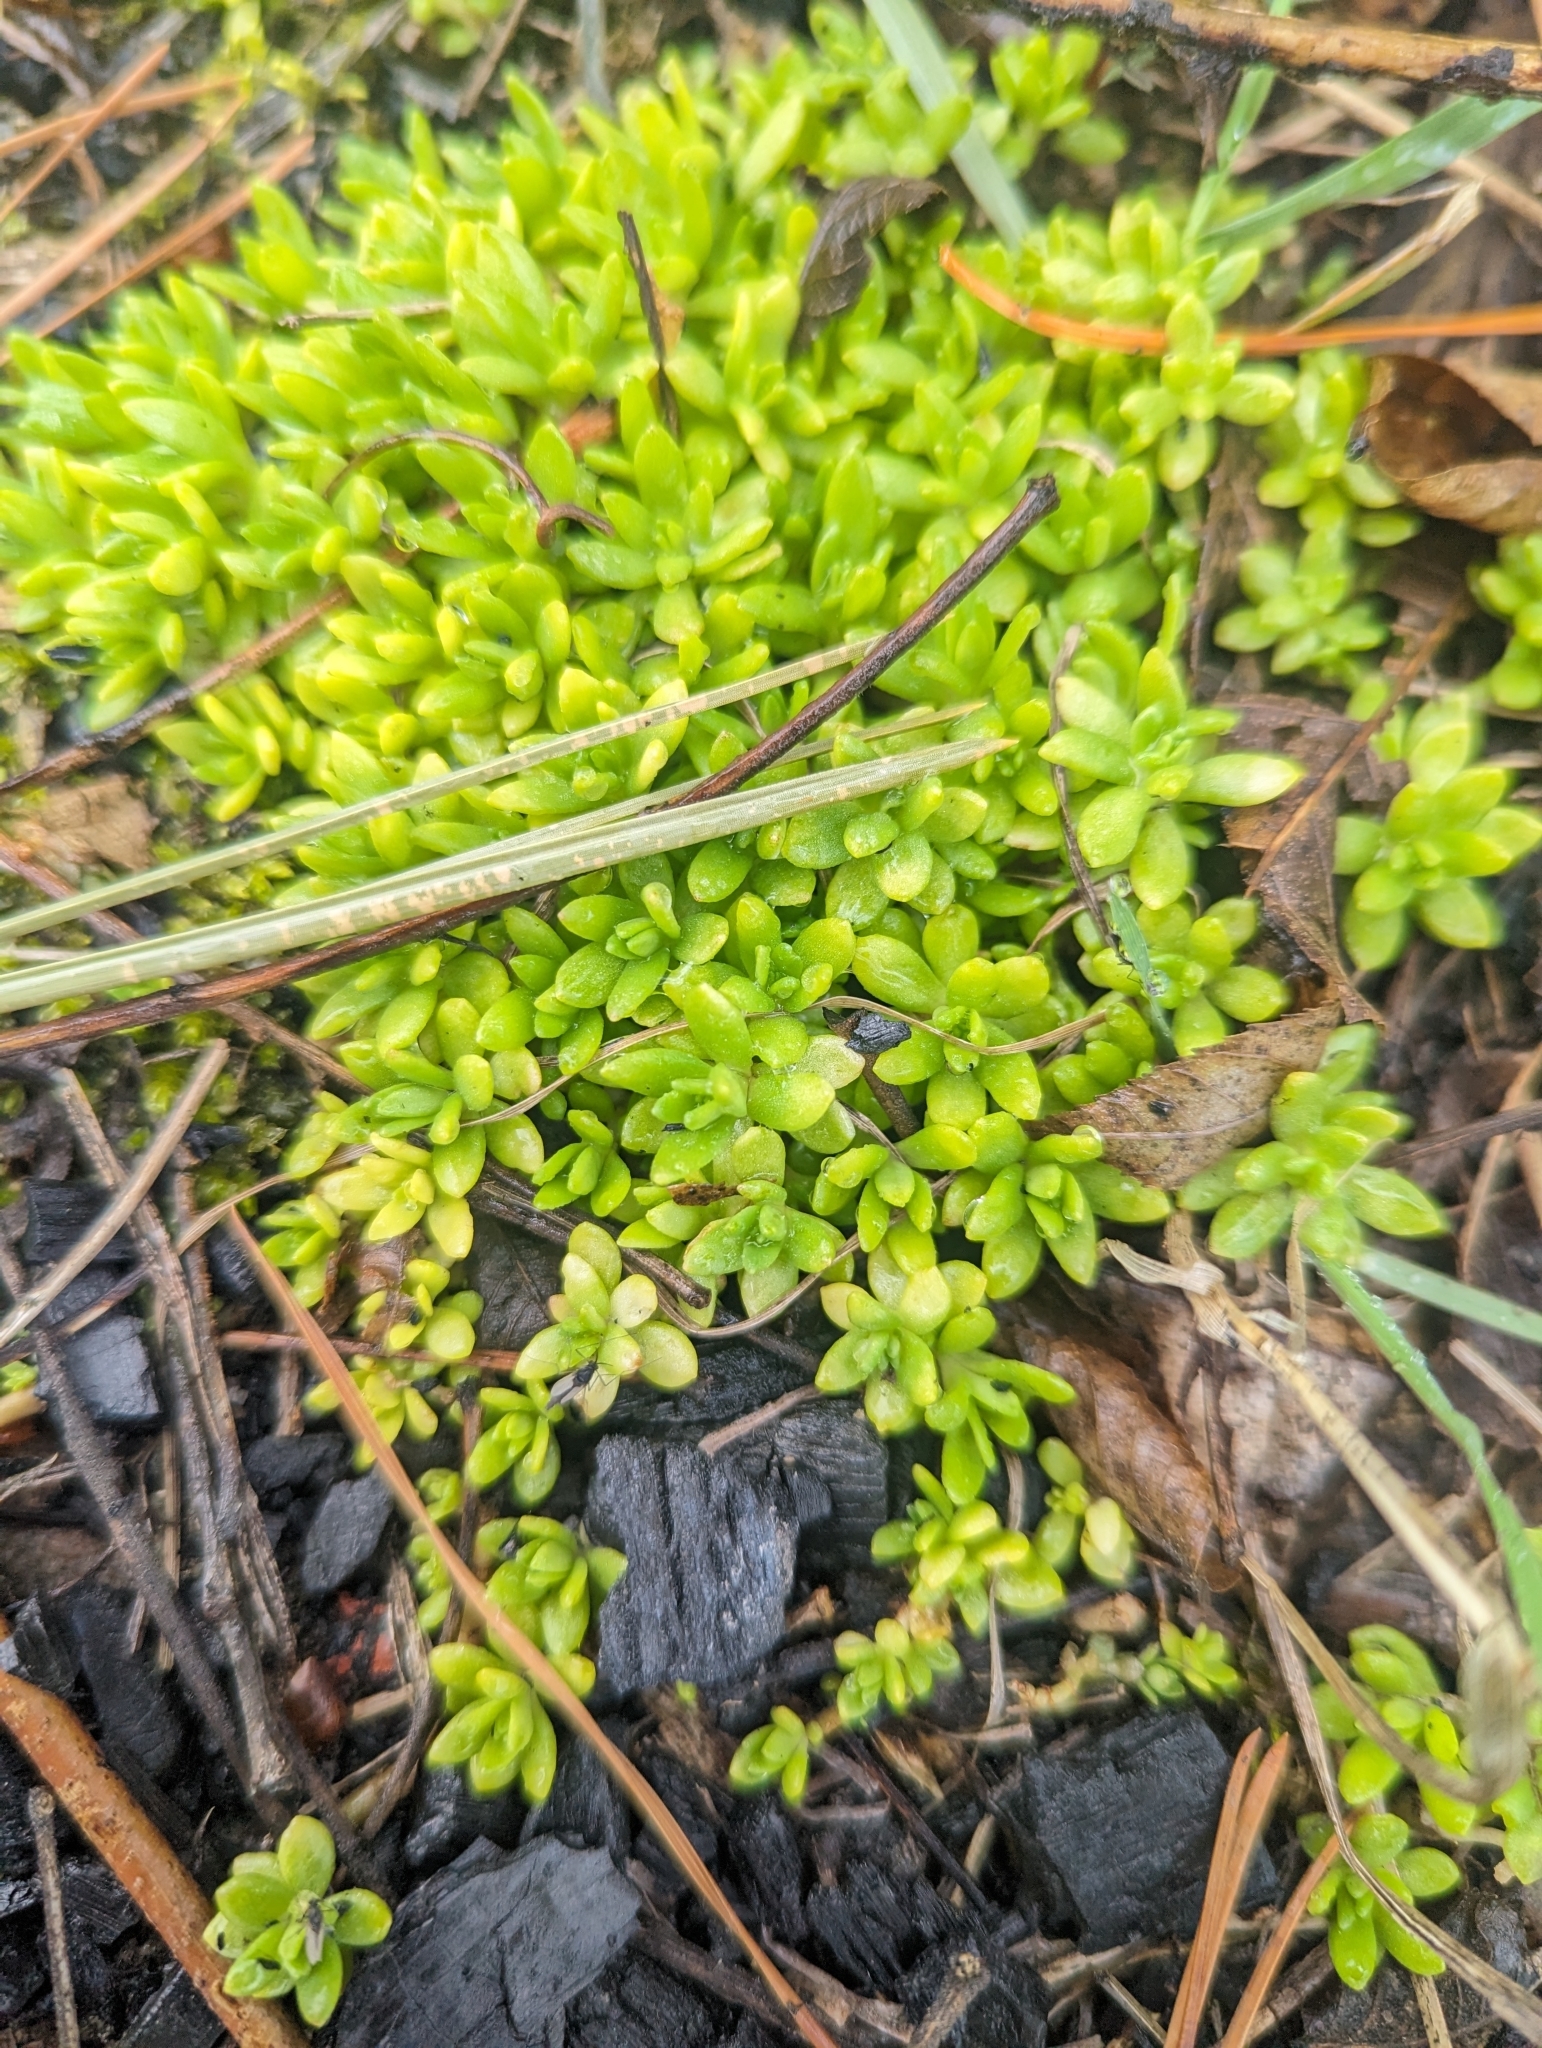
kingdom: Plantae
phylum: Tracheophyta
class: Magnoliopsida
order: Saxifragales
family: Crassulaceae
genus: Sedum
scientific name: Sedum sarmentosum
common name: Stringy stonecrop
